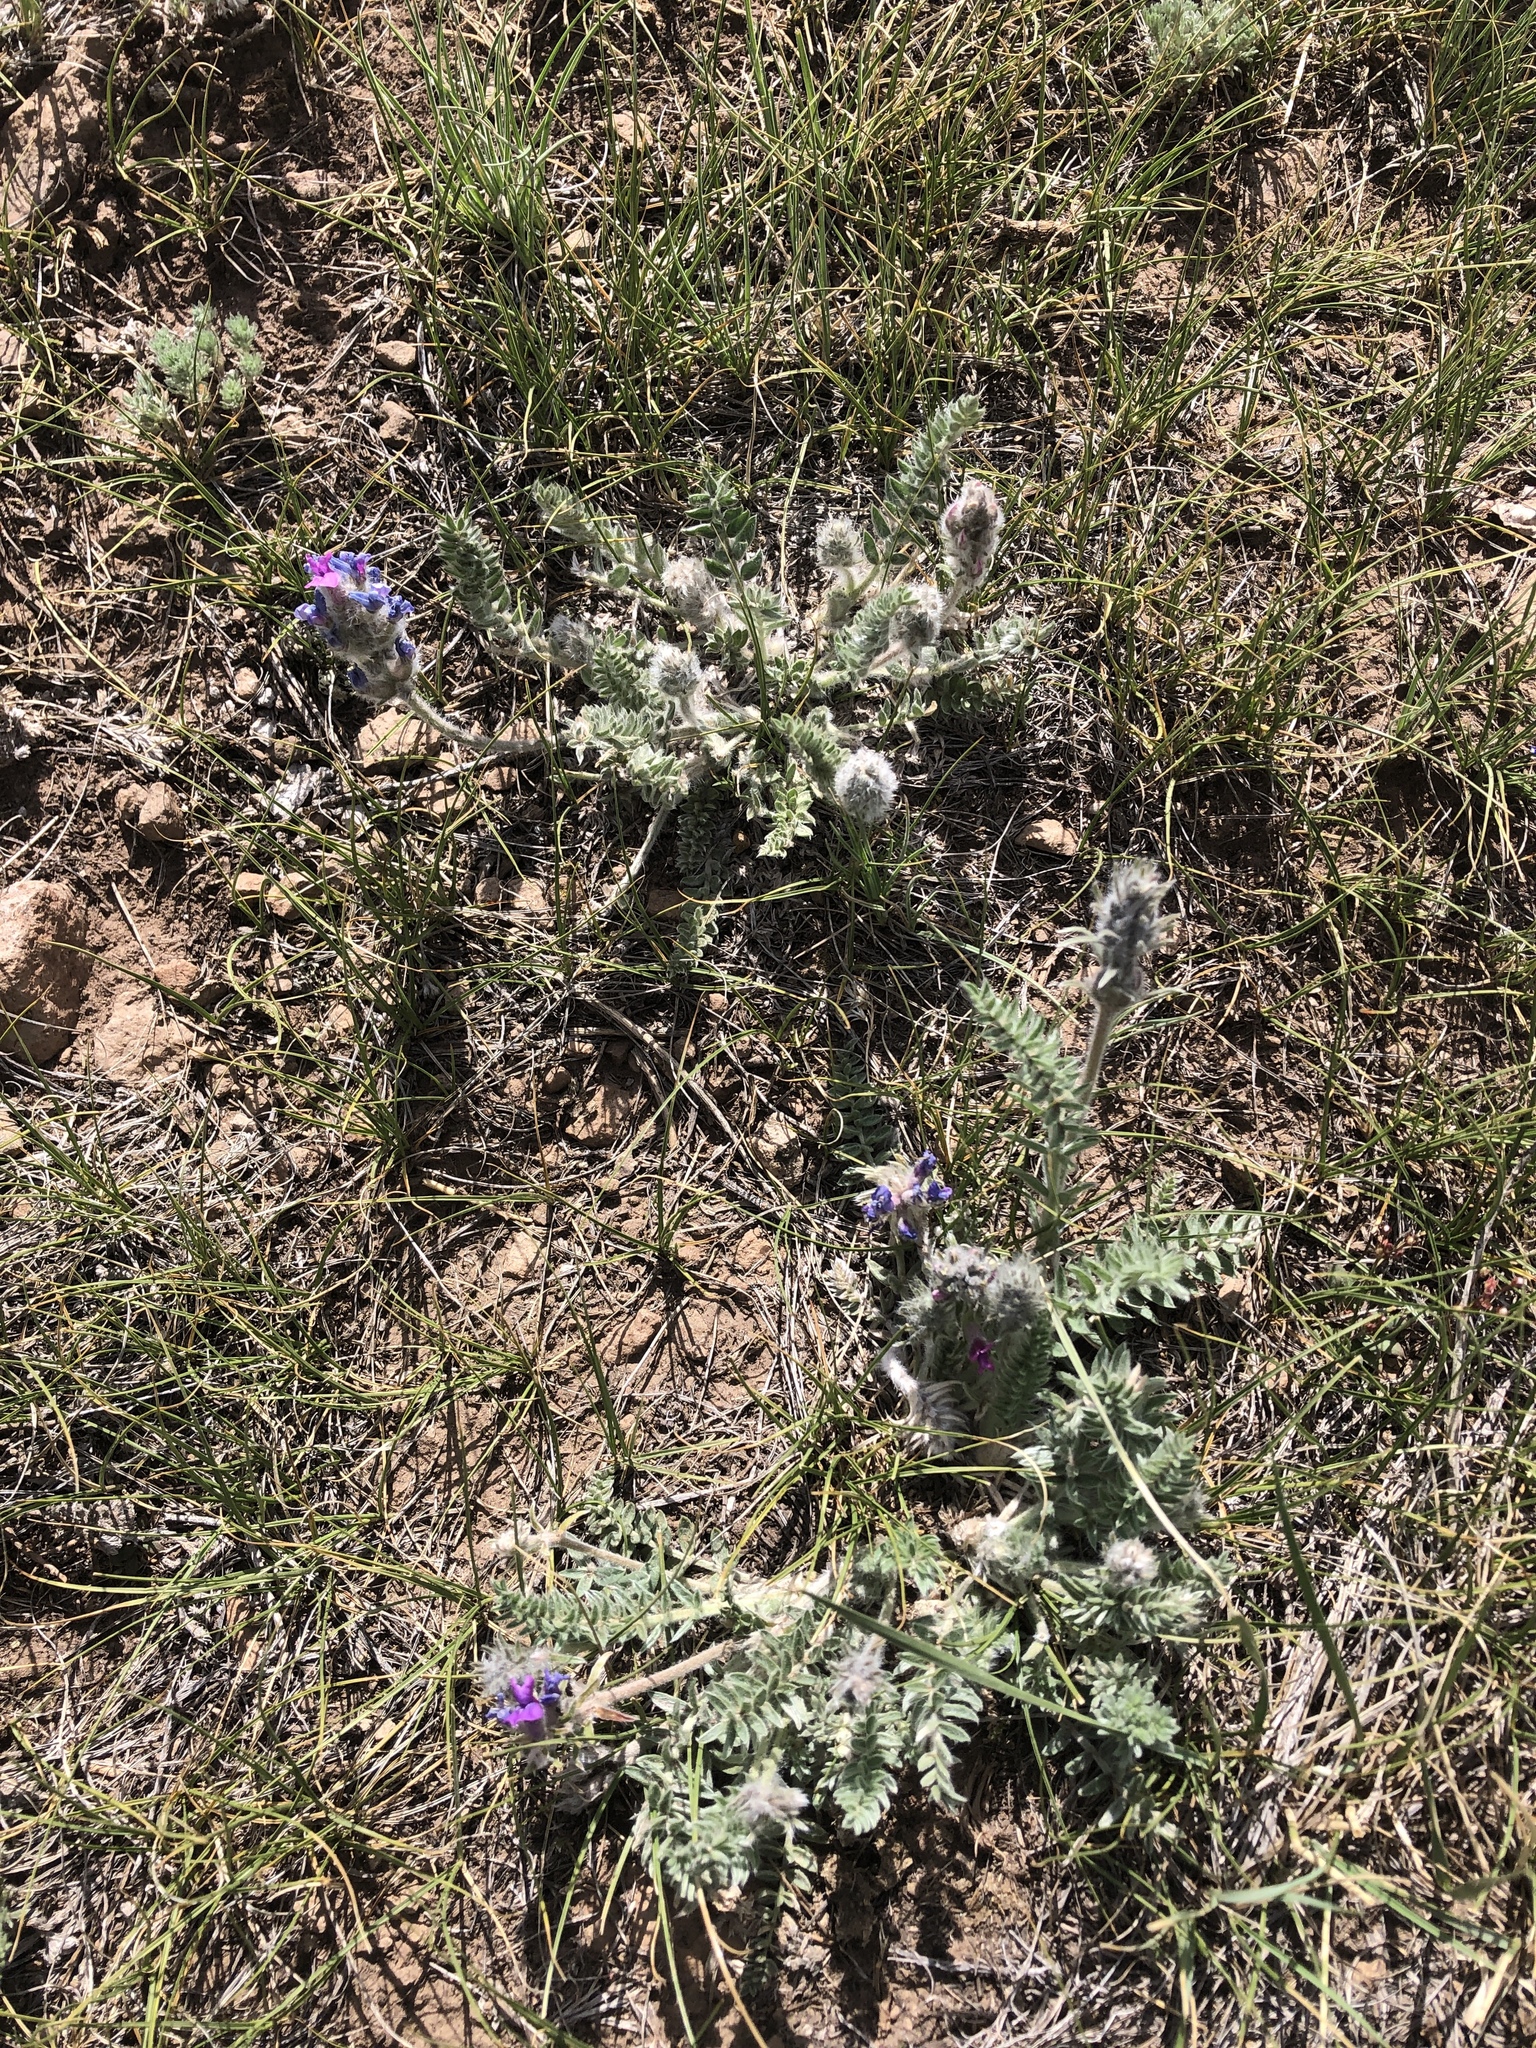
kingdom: Plantae
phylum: Tracheophyta
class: Magnoliopsida
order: Fabales
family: Fabaceae
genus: Oxytropis
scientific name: Oxytropis splendens
